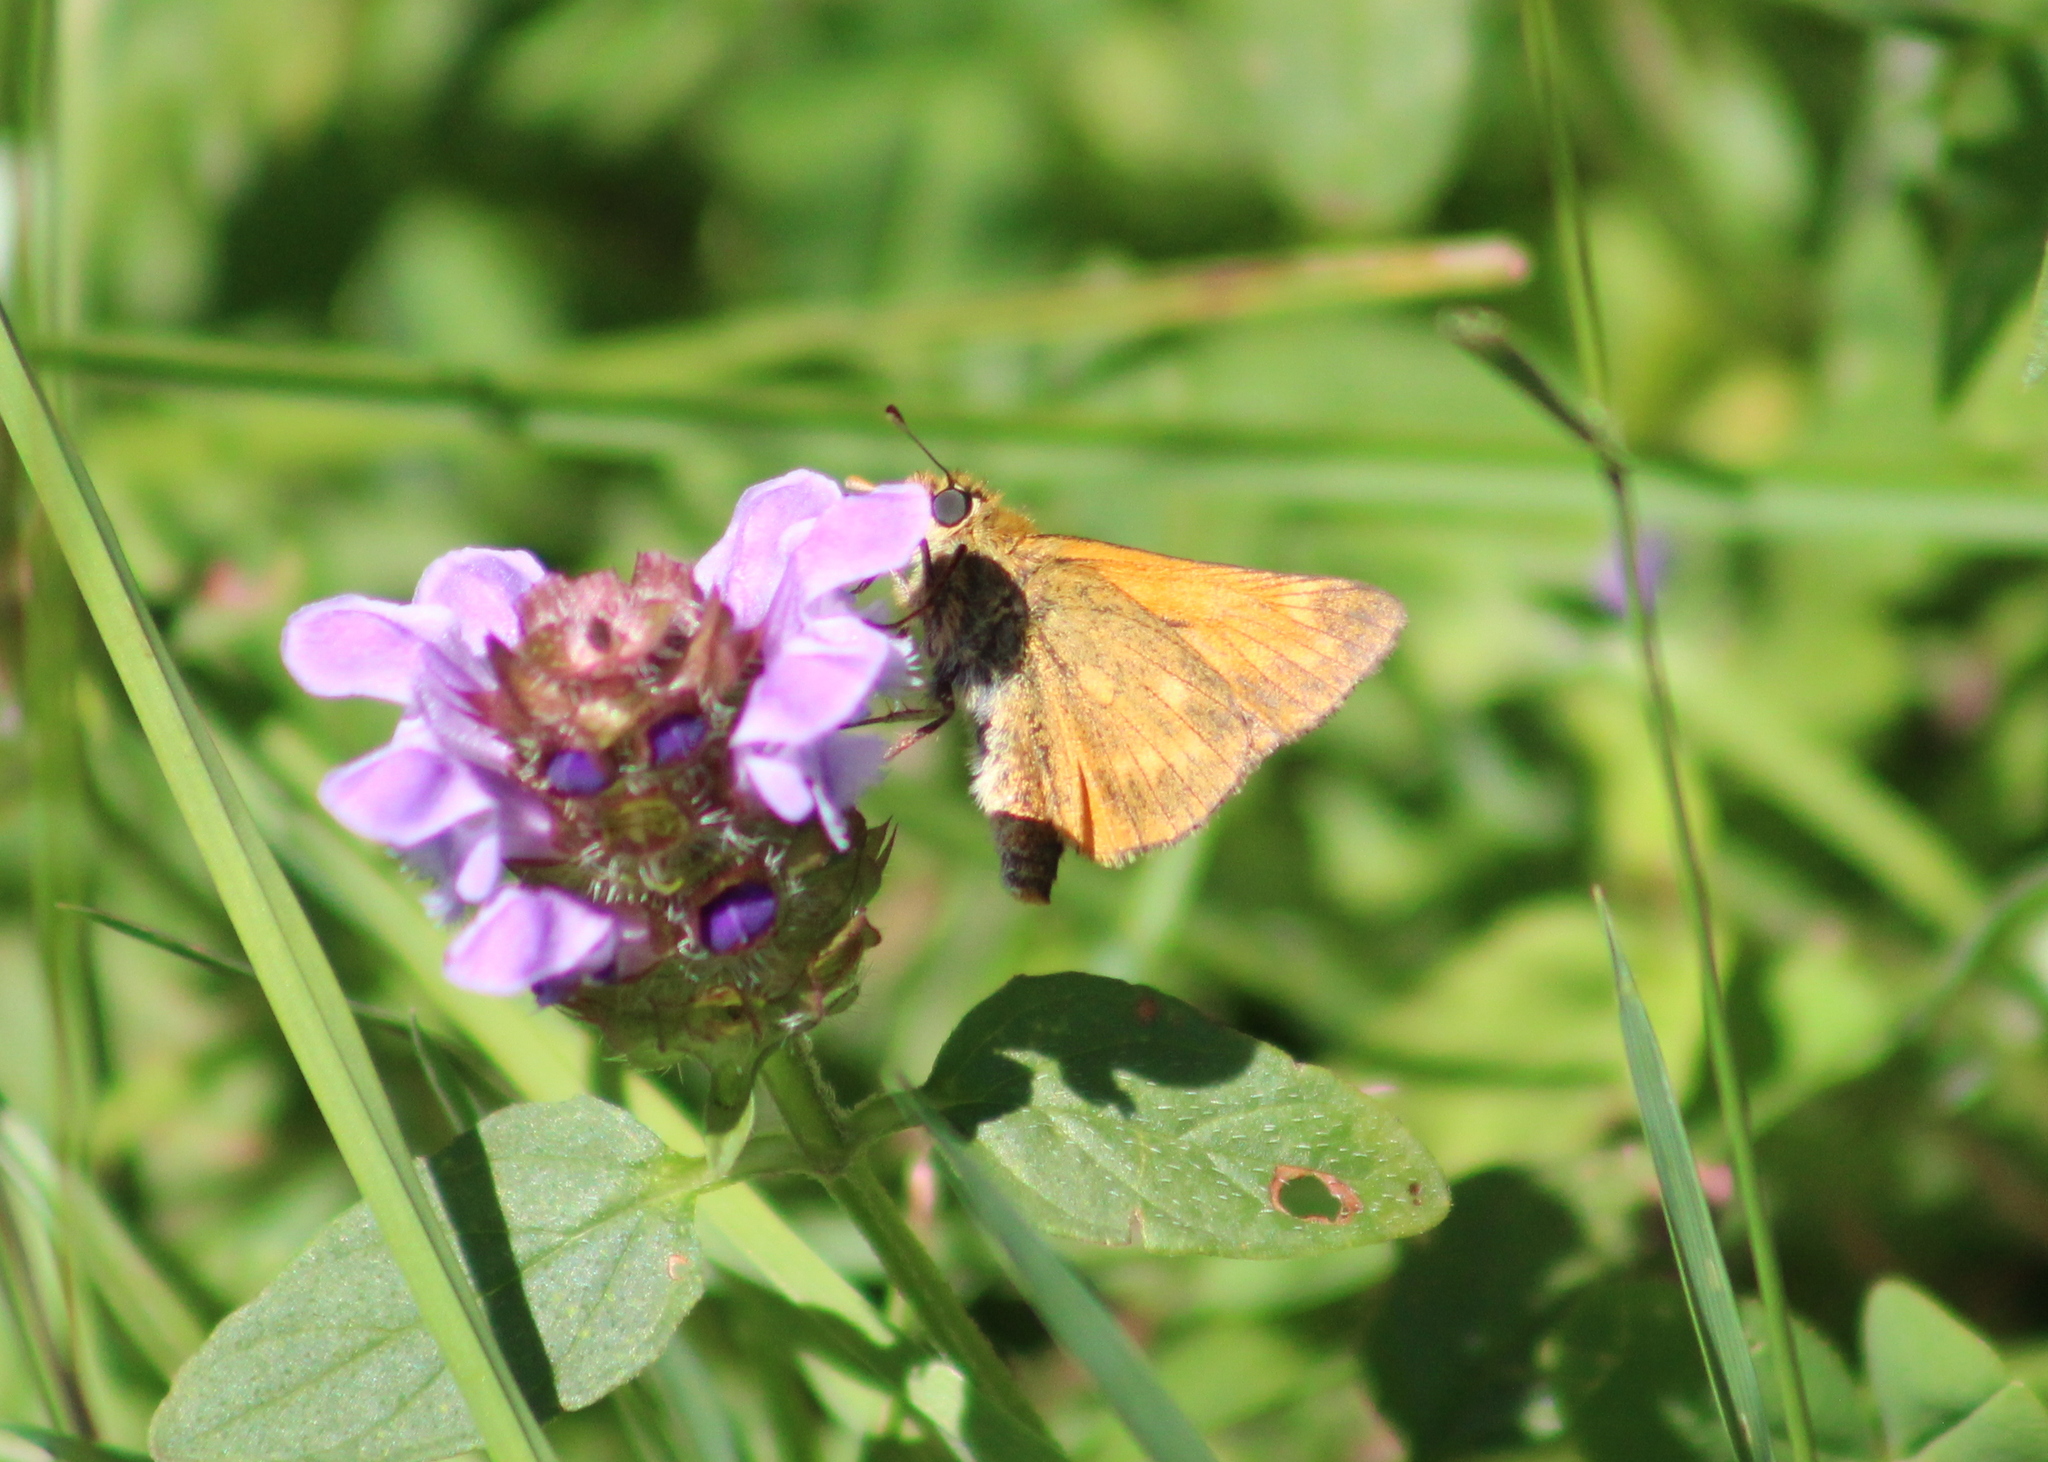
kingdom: Animalia
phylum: Arthropoda
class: Insecta
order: Lepidoptera
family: Hesperiidae
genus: Ochlodes
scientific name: Ochlodes venata
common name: Large skipper
